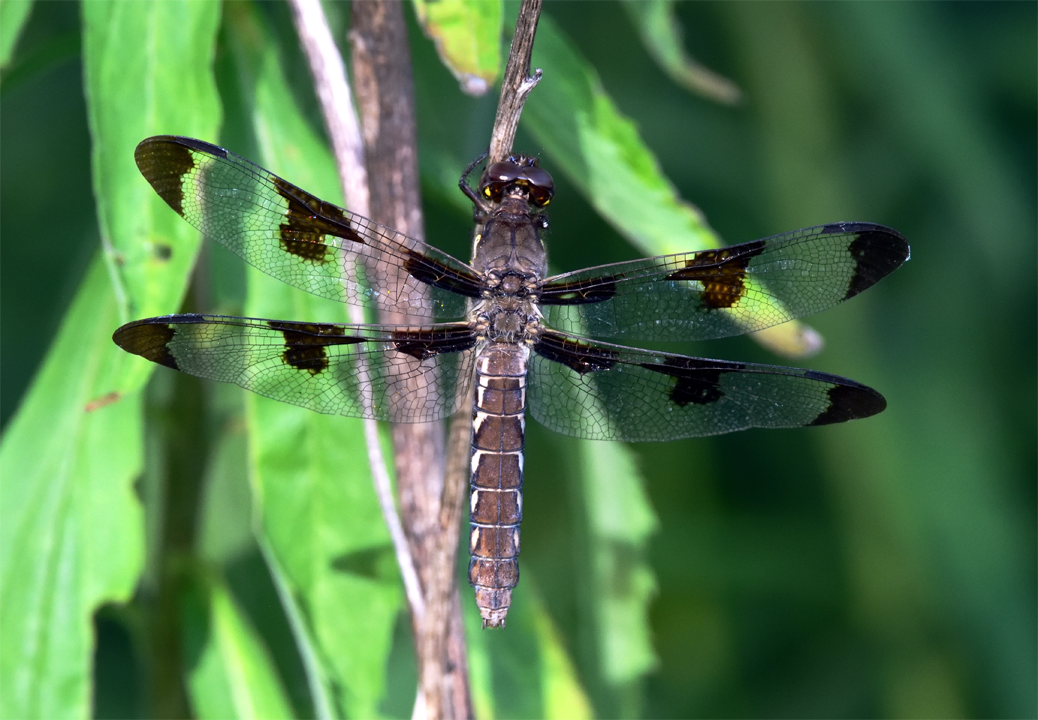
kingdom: Animalia
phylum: Arthropoda
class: Insecta
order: Odonata
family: Libellulidae
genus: Plathemis
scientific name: Plathemis lydia
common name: Common whitetail
